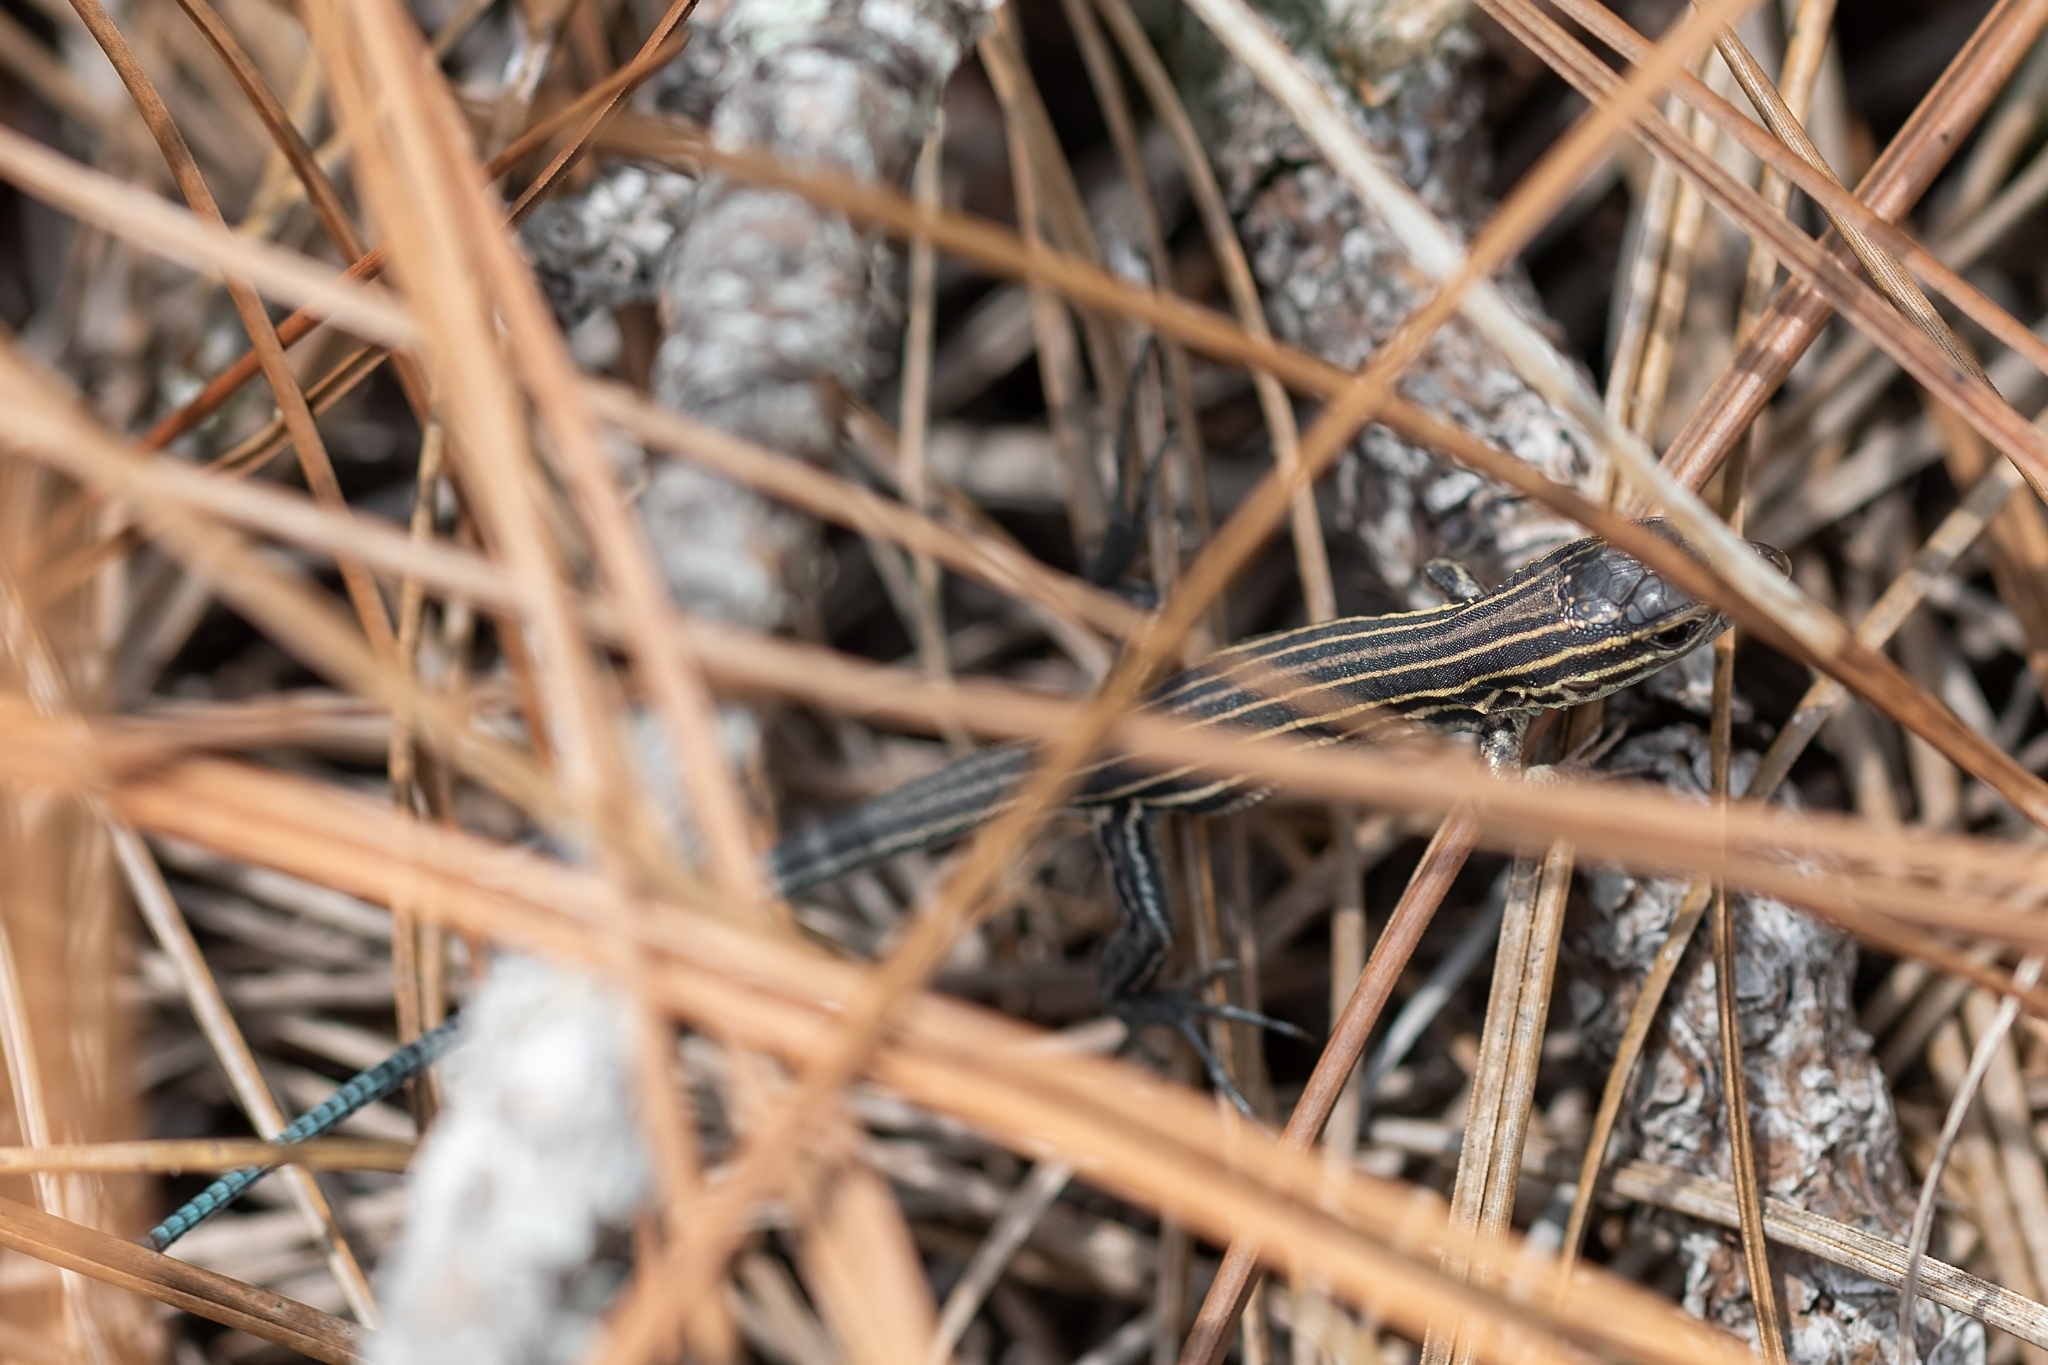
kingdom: Animalia
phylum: Chordata
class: Squamata
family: Teiidae
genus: Aspidoscelis
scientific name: Aspidoscelis sexlineatus
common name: Six-lined racerunner
